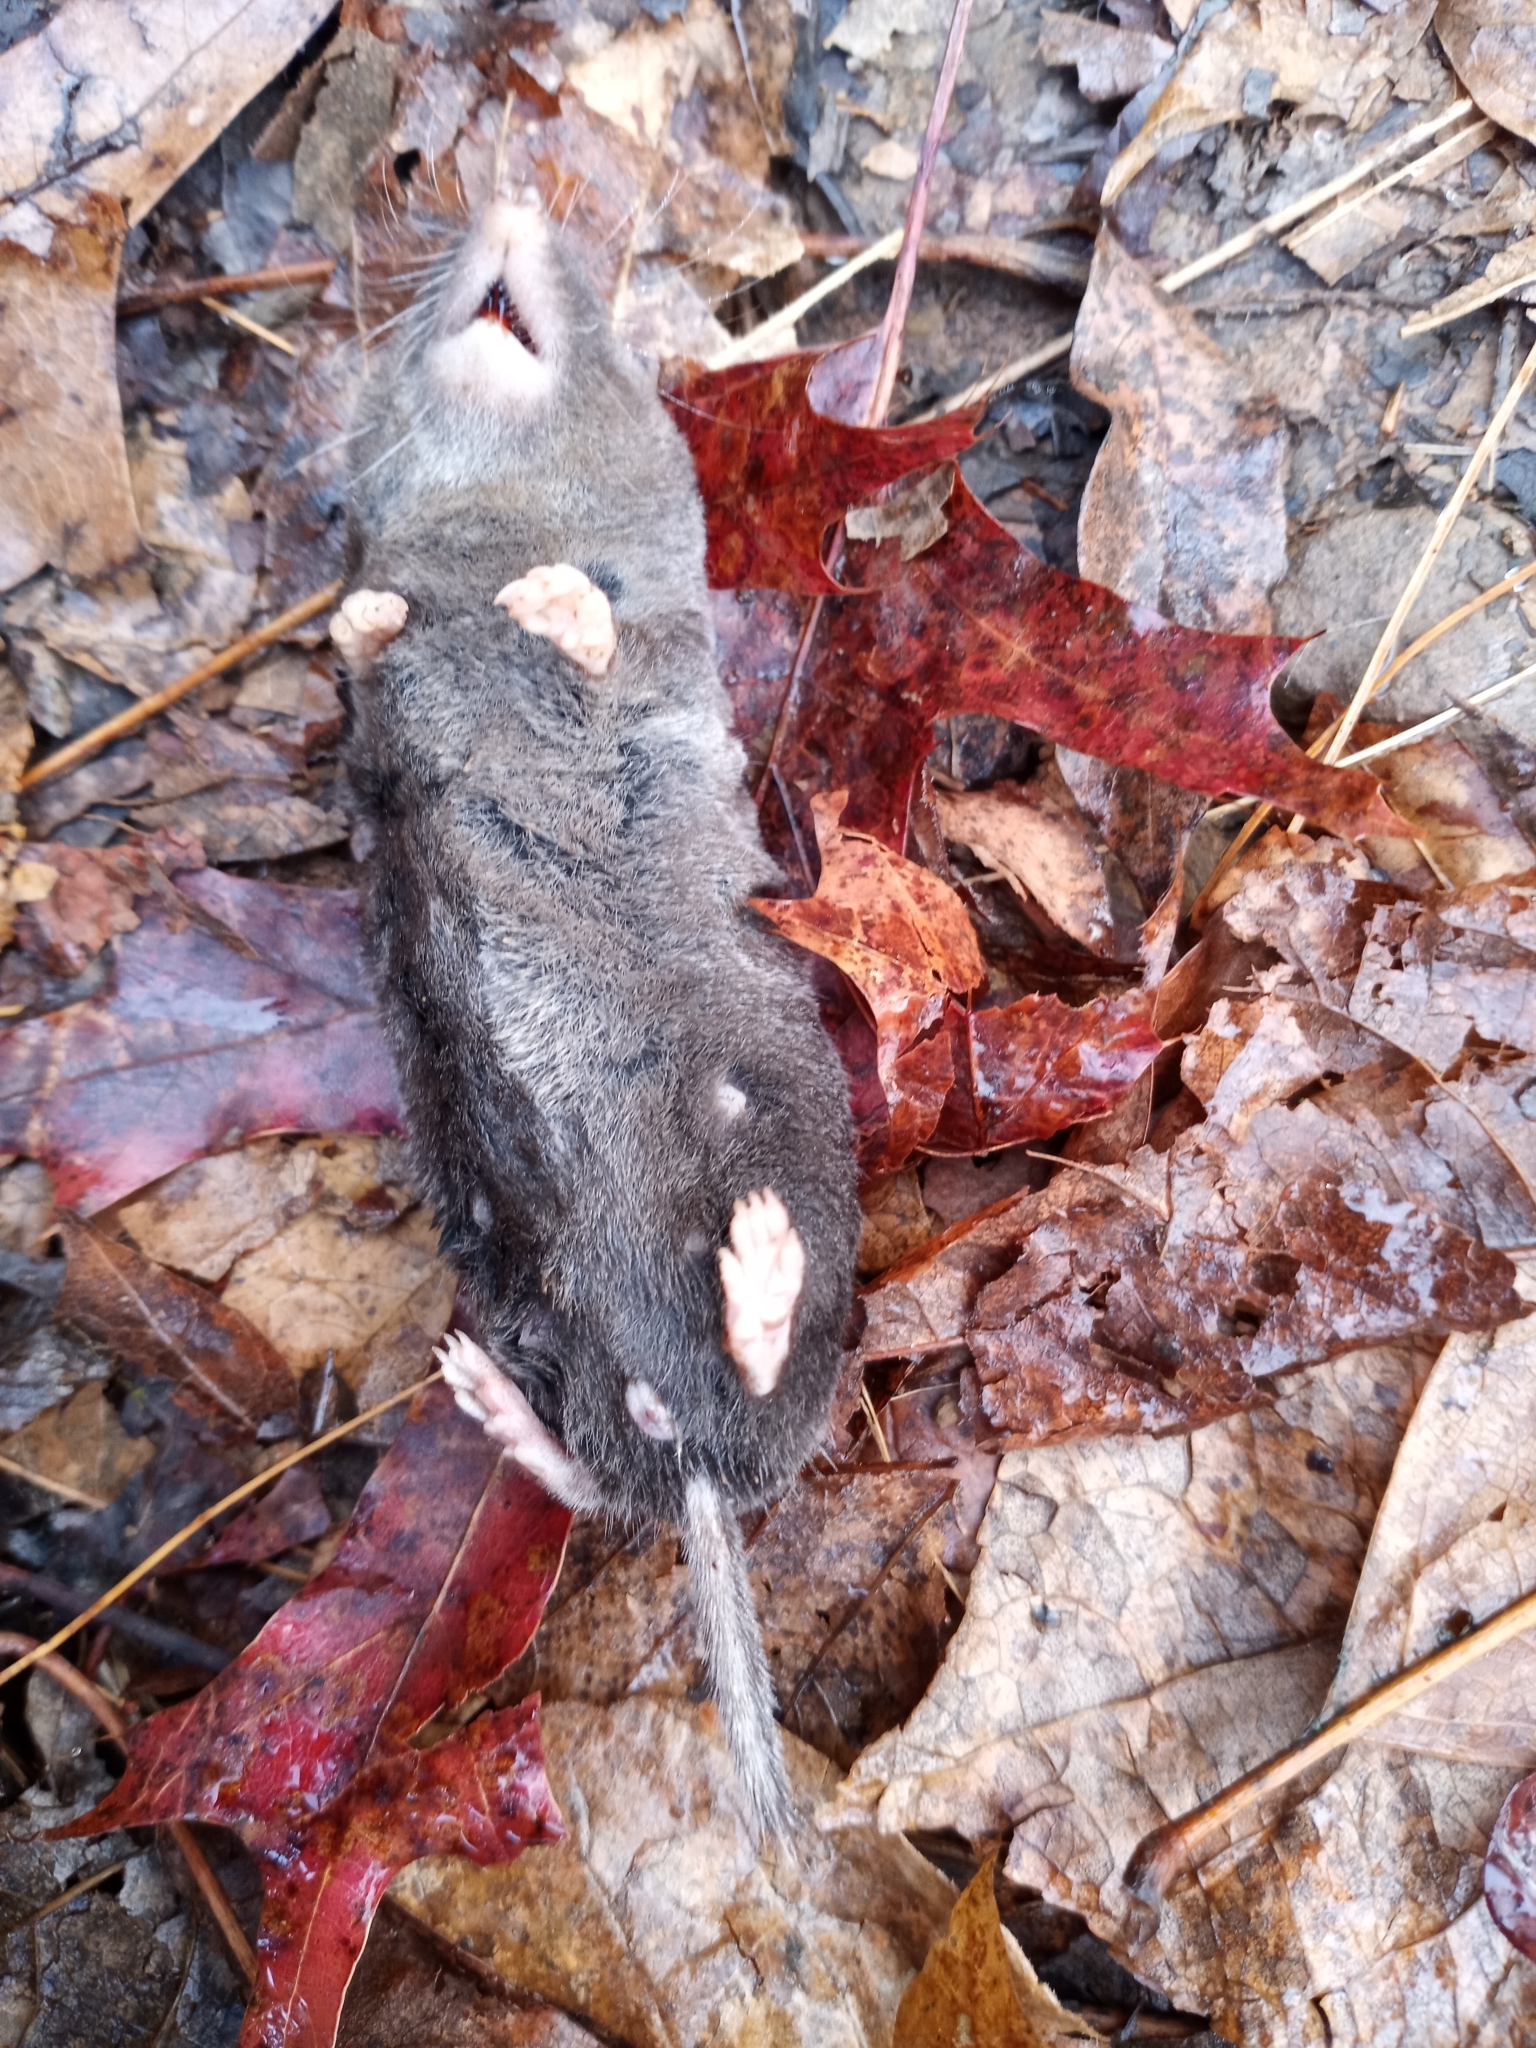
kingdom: Animalia
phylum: Chordata
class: Mammalia
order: Soricomorpha
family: Soricidae
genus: Blarina
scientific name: Blarina brevicauda
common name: Northern short-tailed shrew
